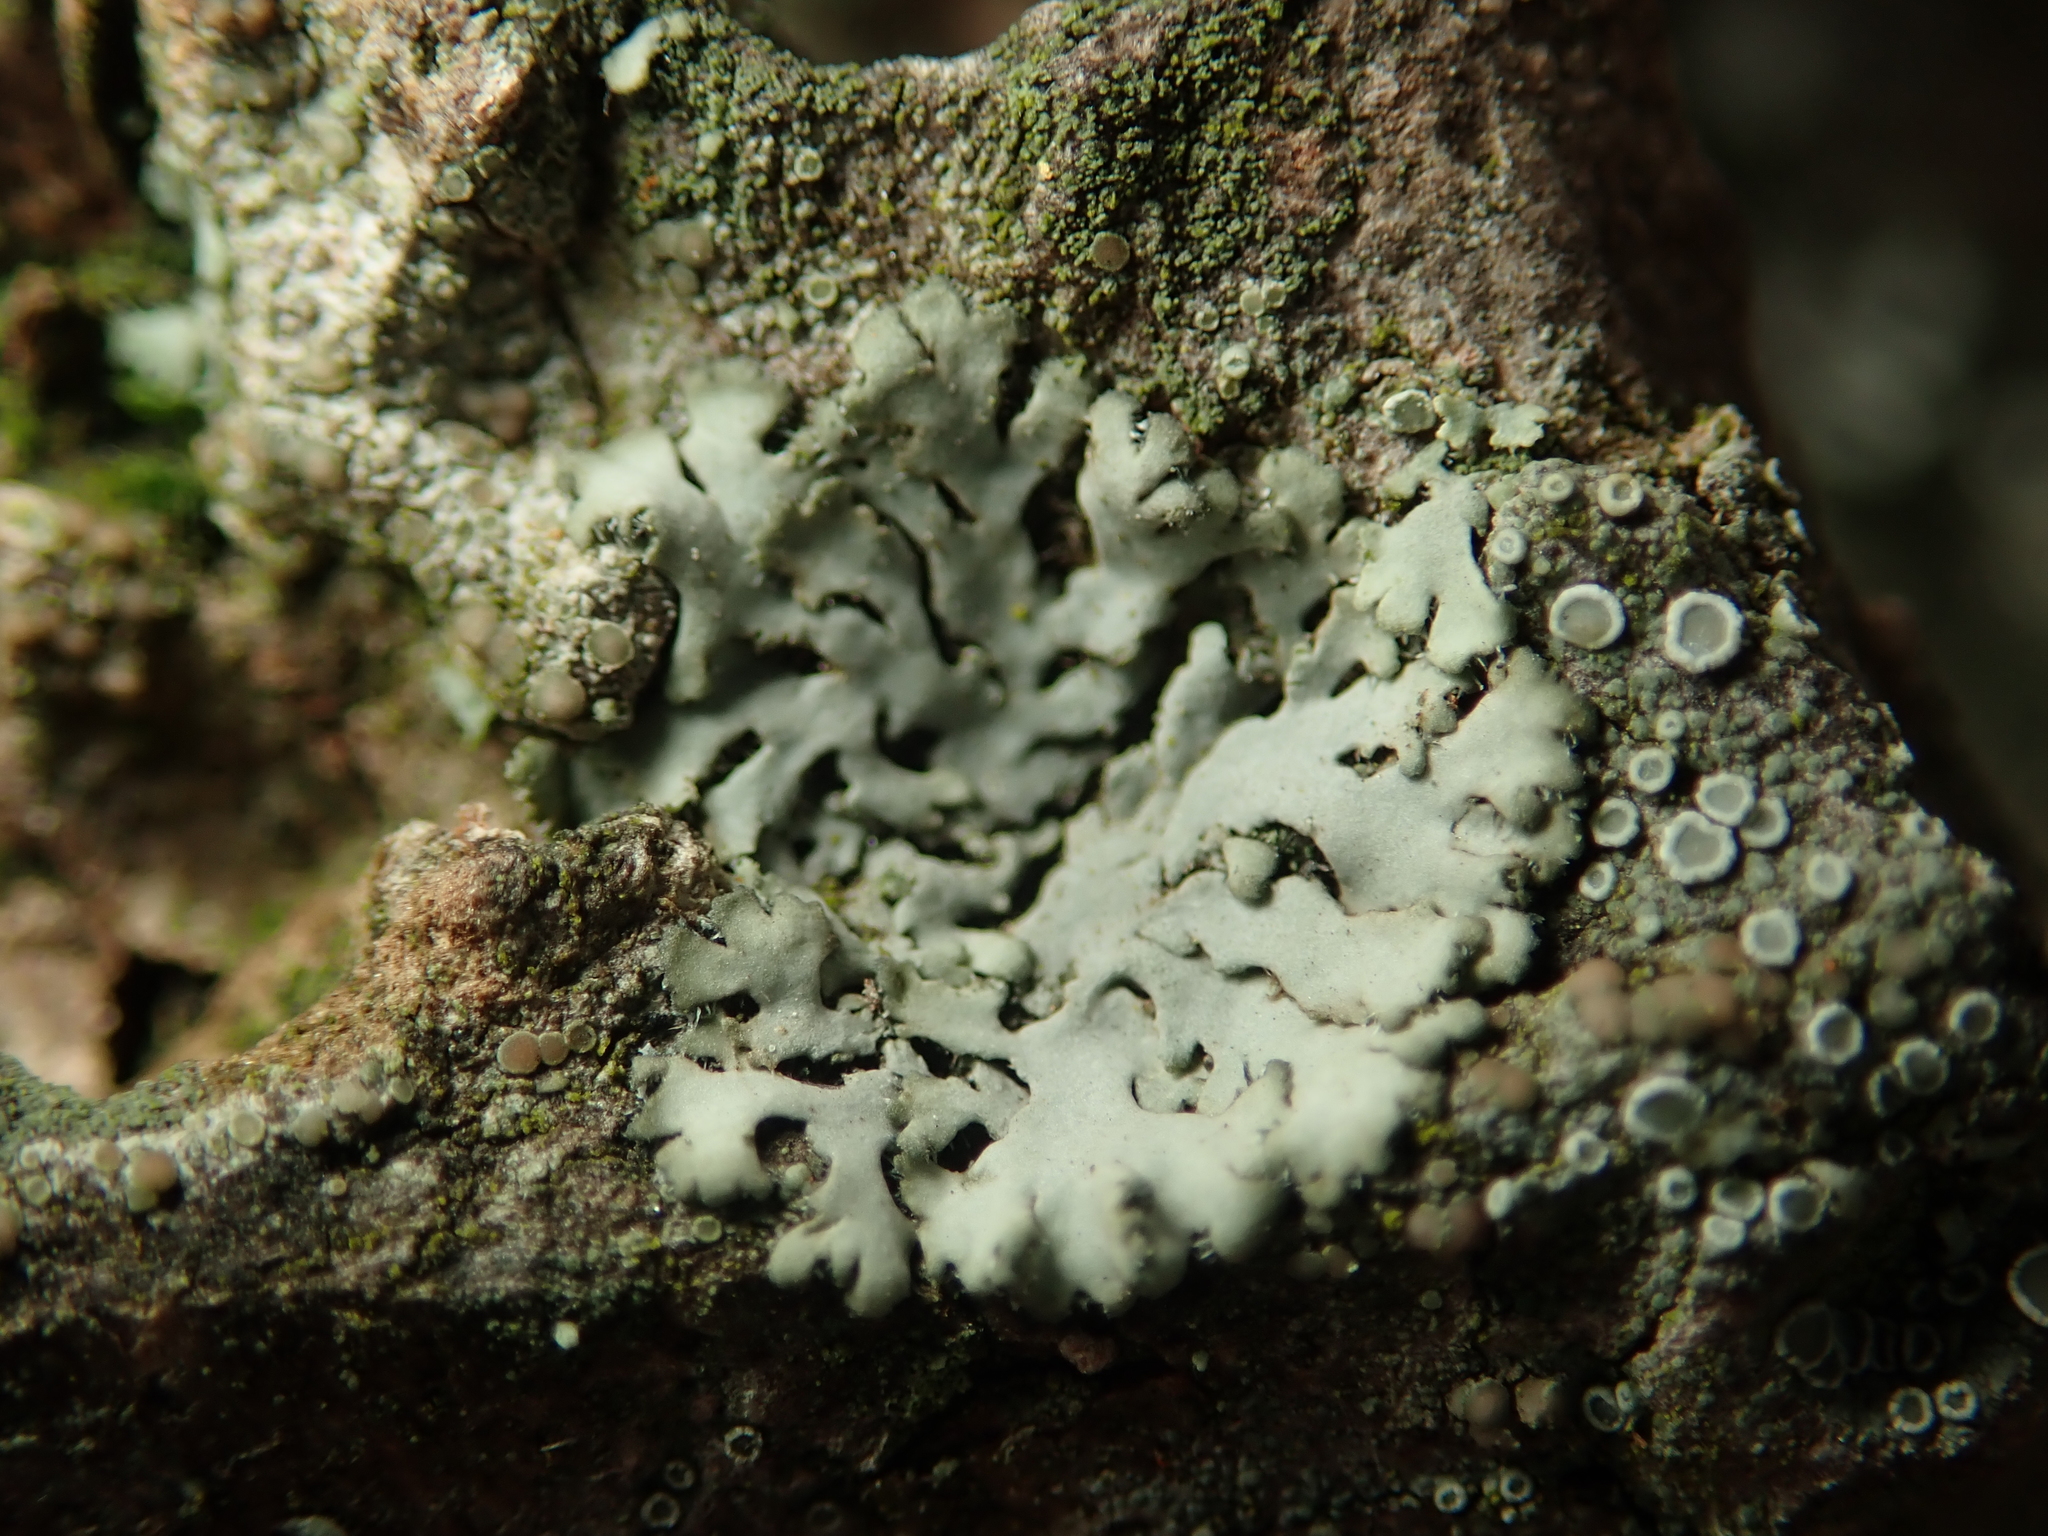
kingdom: Fungi
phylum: Ascomycota
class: Lecanoromycetes
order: Caliciales
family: Physciaceae
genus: Phaeophyscia
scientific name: Phaeophyscia orbicularis
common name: Mealy shadow lichen
